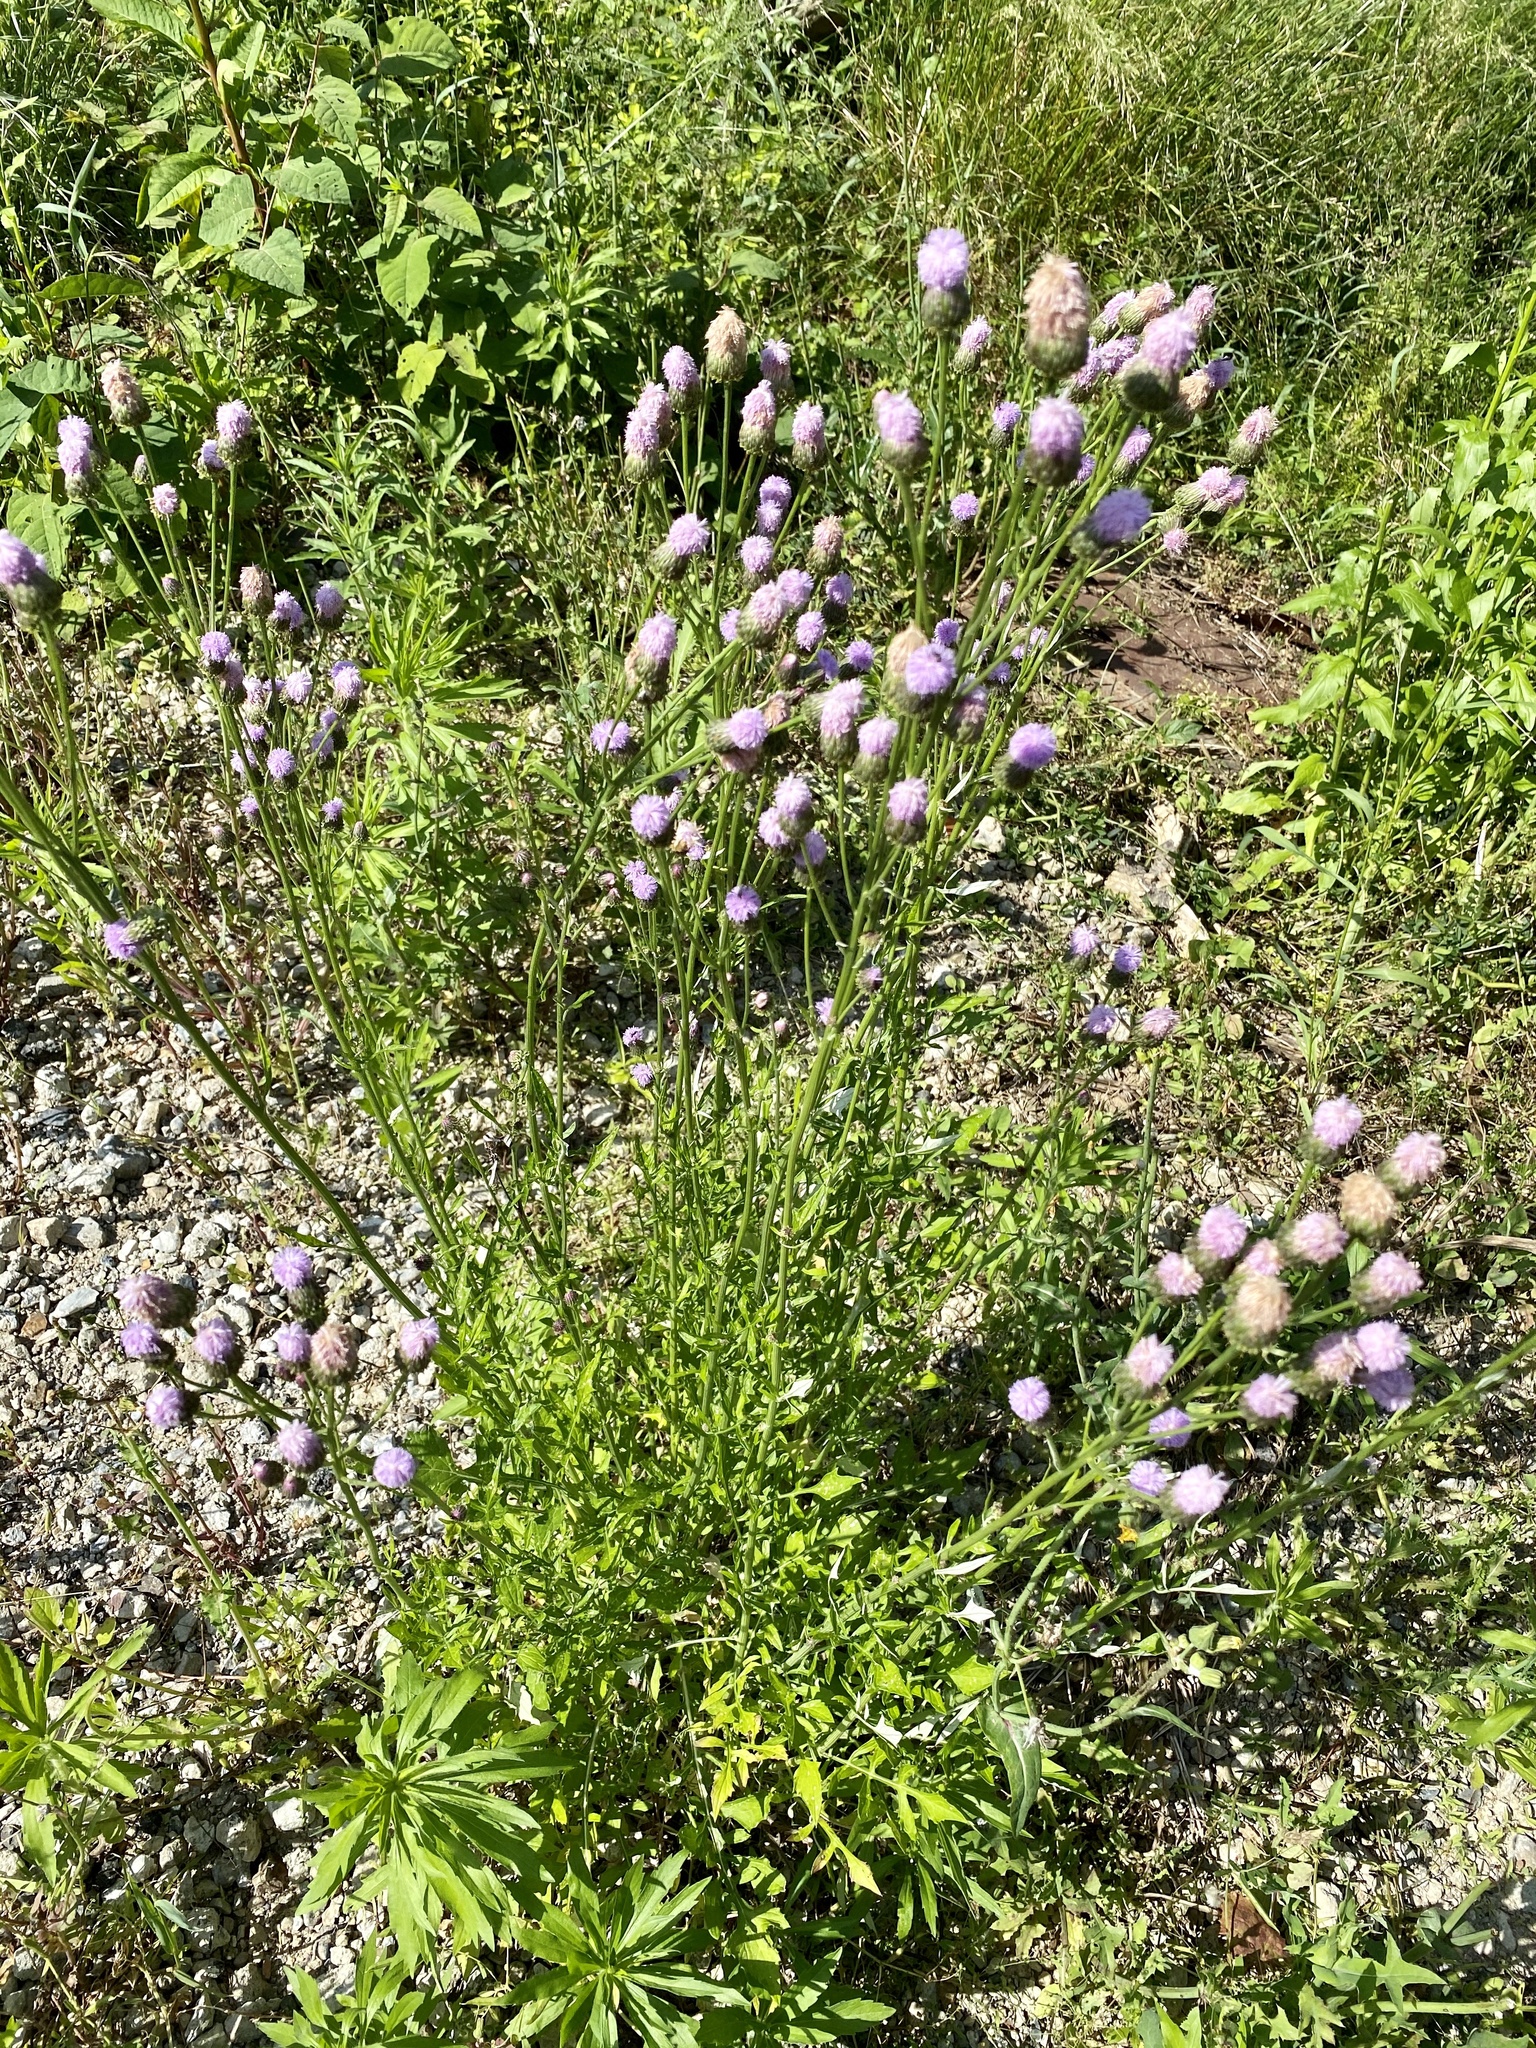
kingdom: Plantae
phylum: Tracheophyta
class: Magnoliopsida
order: Asterales
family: Asteraceae
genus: Saussurea
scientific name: Saussurea lyrata
